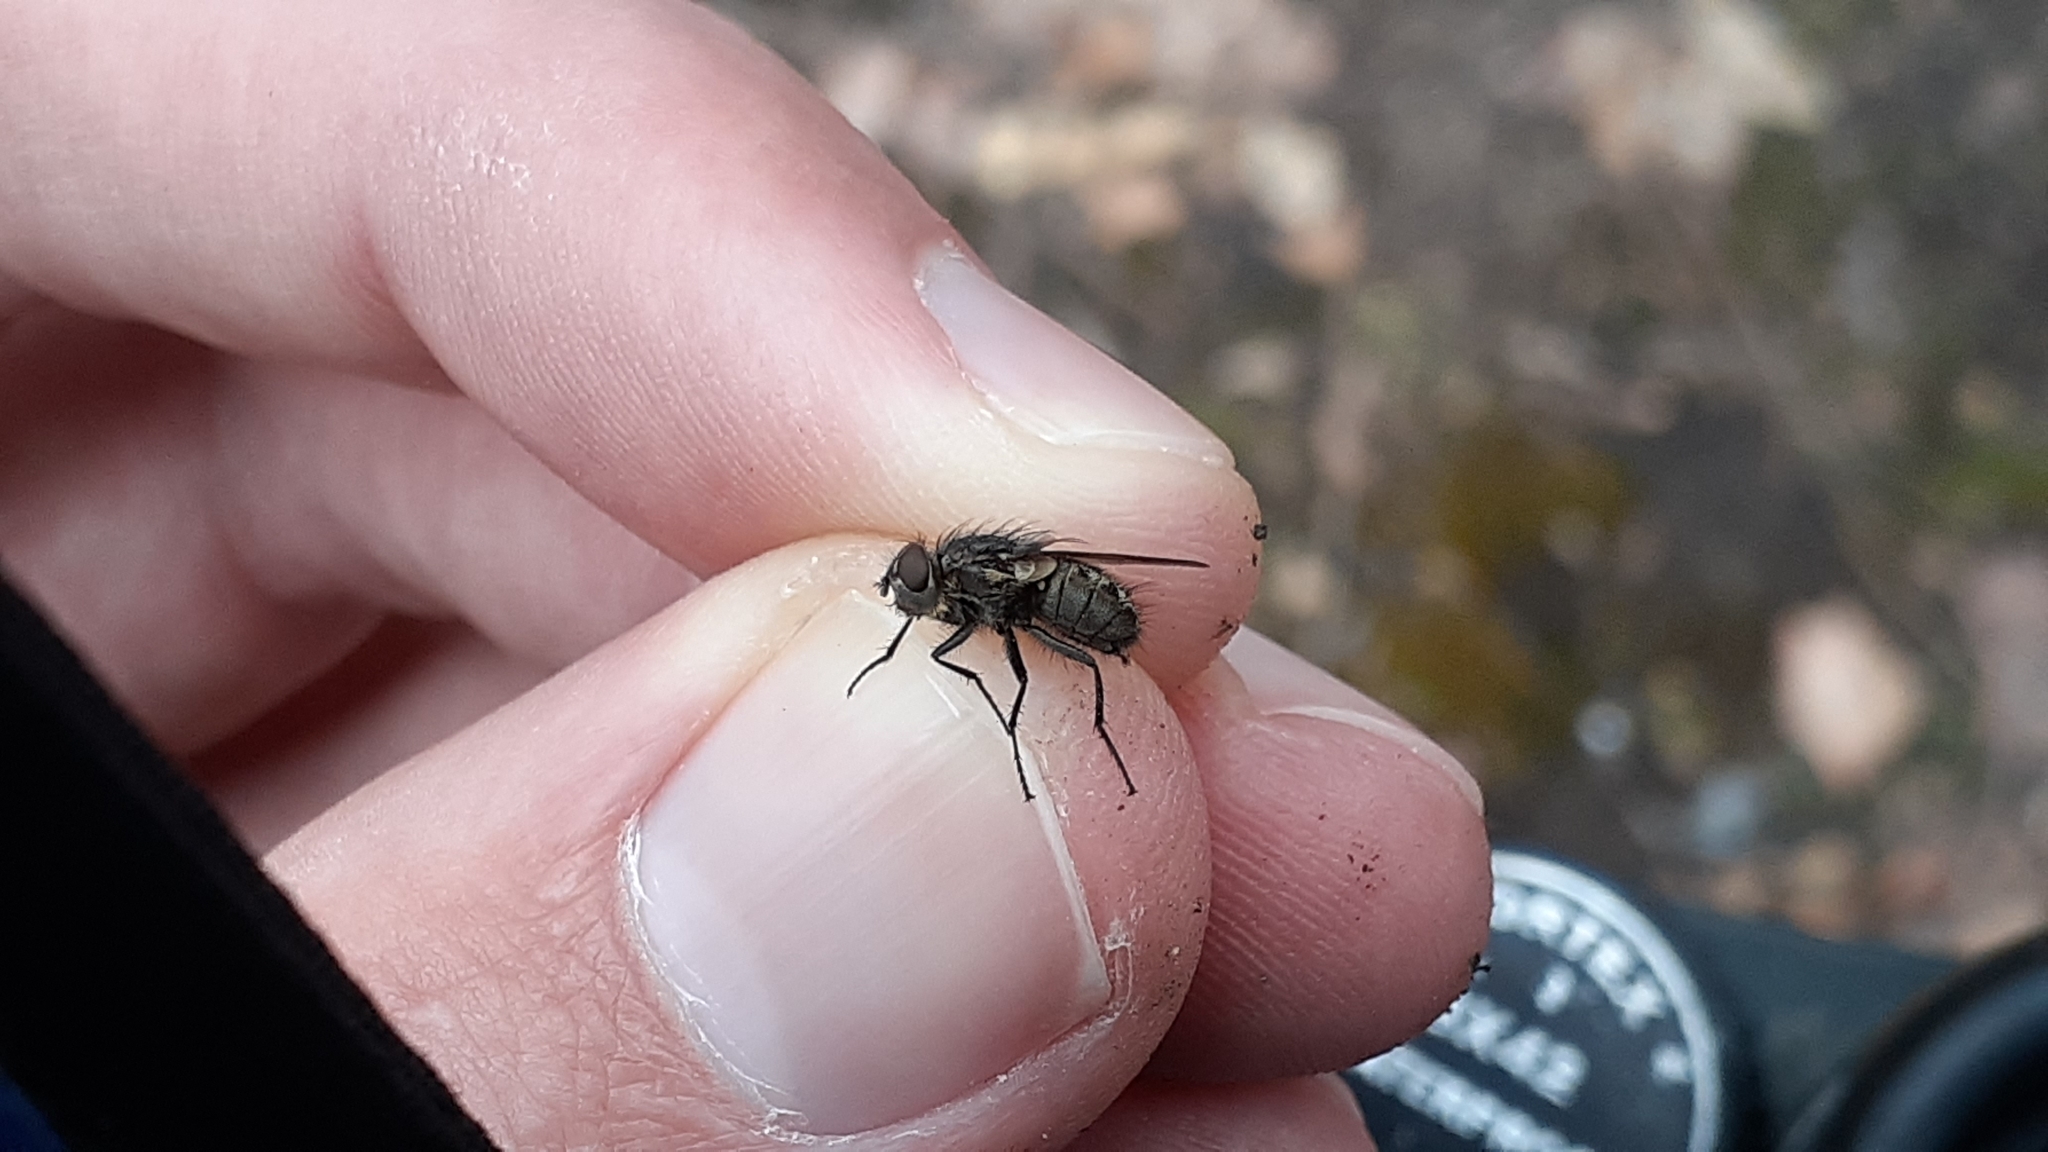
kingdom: Animalia
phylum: Arthropoda
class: Insecta
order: Diptera
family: Polleniidae
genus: Pollenia
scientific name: Pollenia
